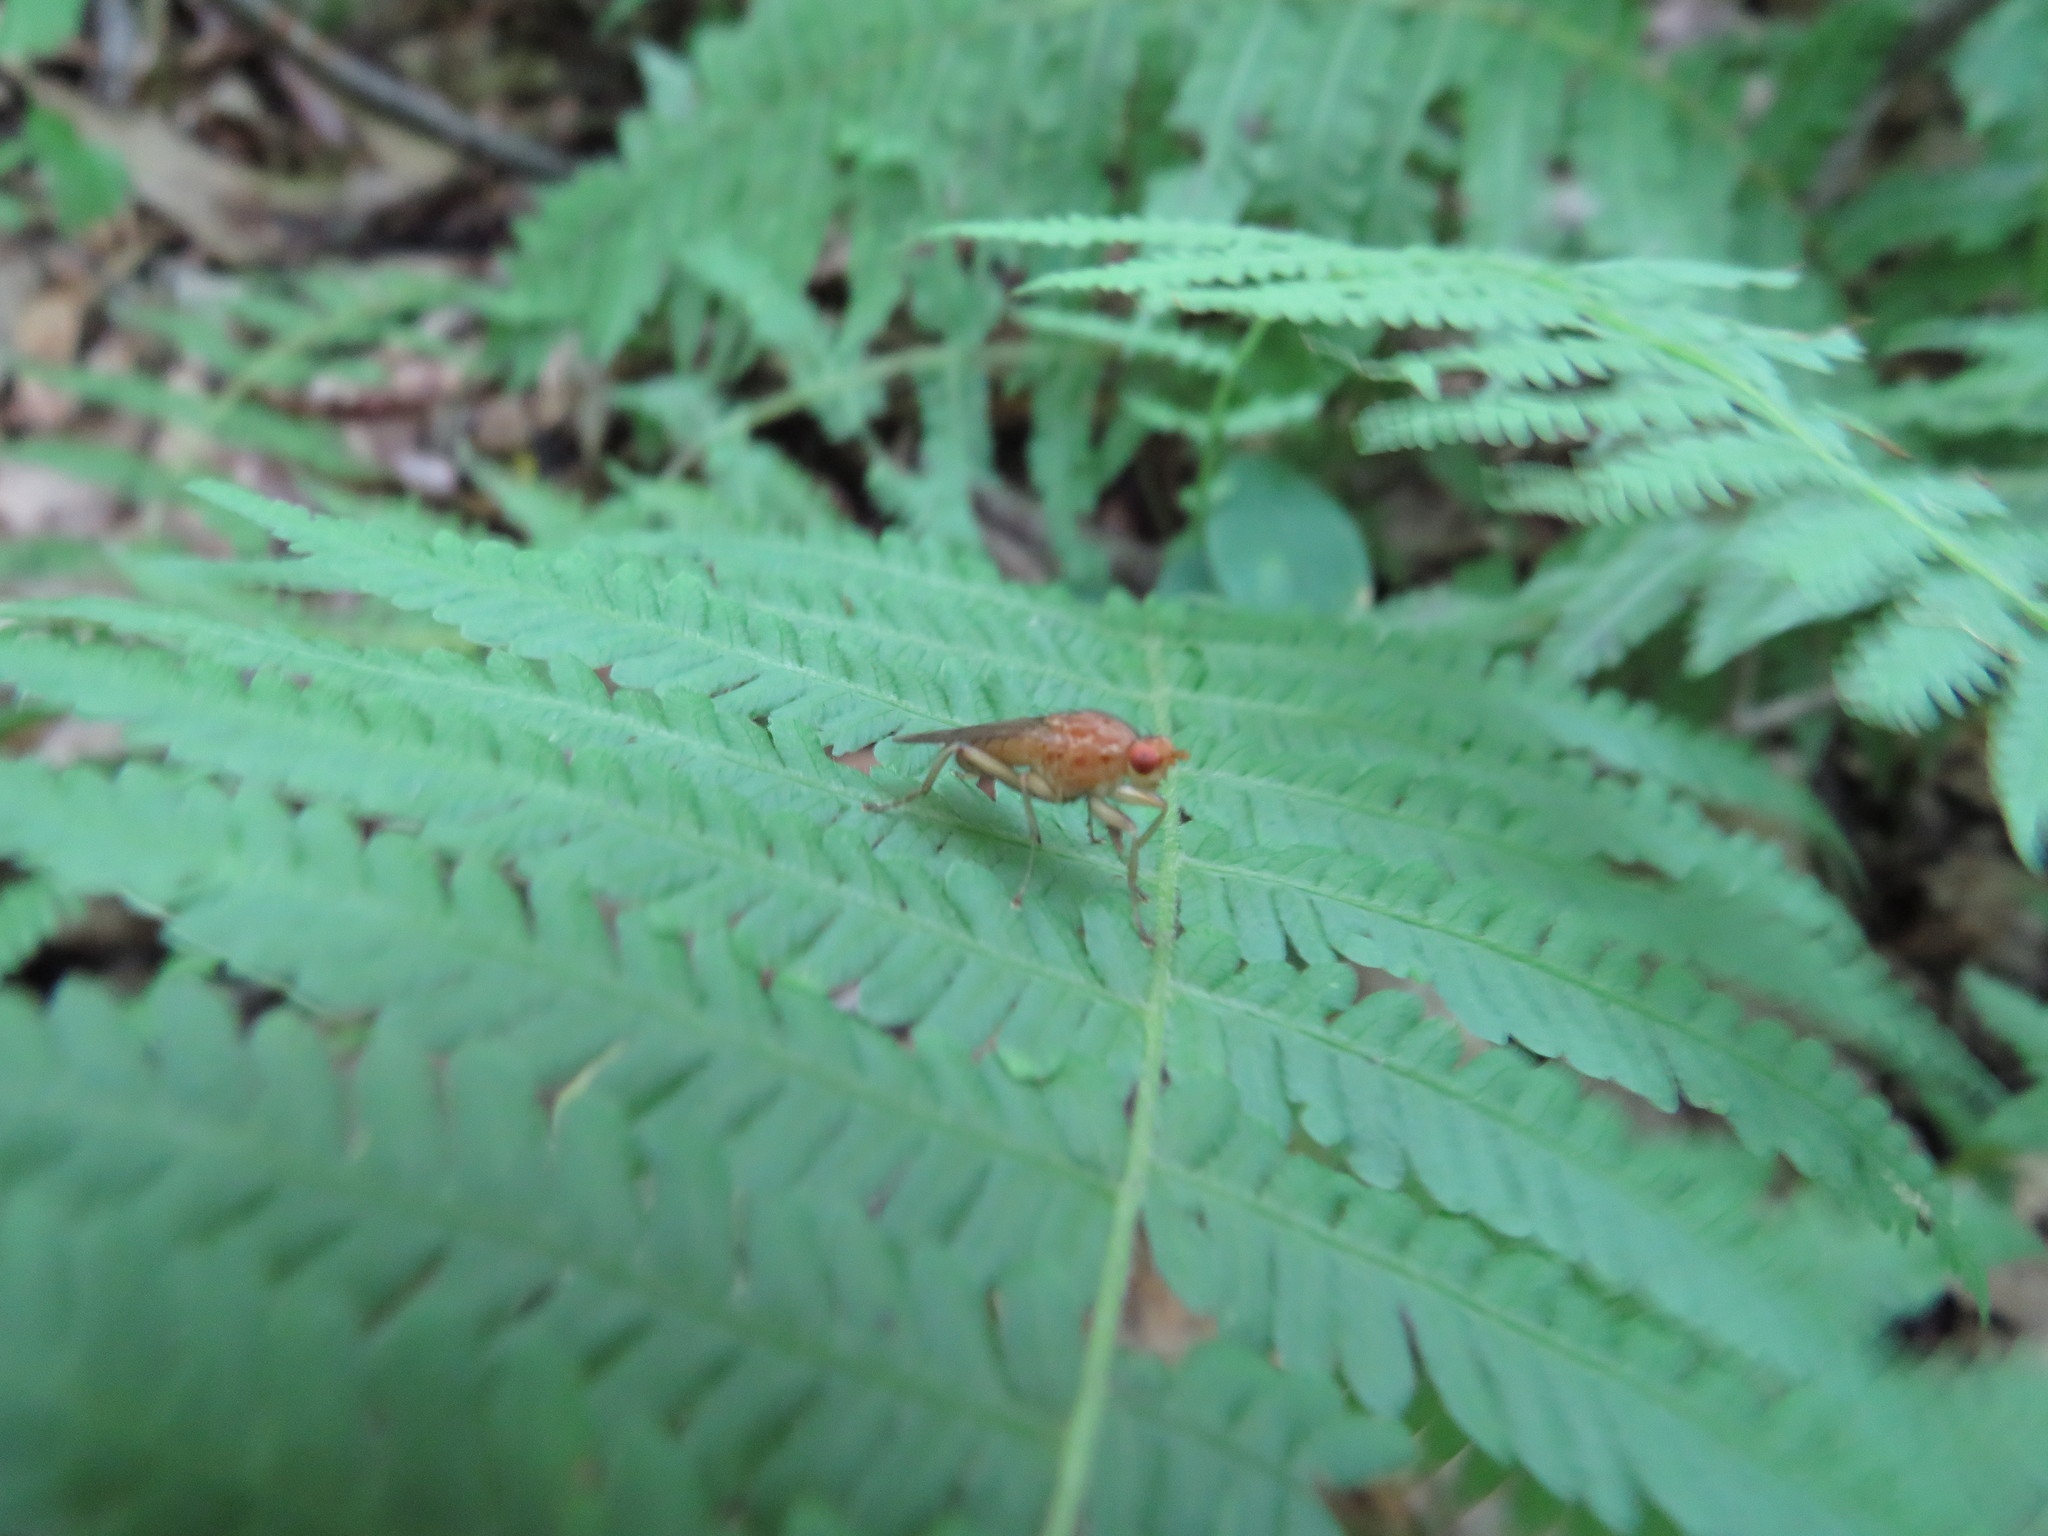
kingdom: Animalia
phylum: Arthropoda
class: Insecta
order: Diptera
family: Heleomyzidae
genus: Amoebaleria
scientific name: Amoebaleria helvola
